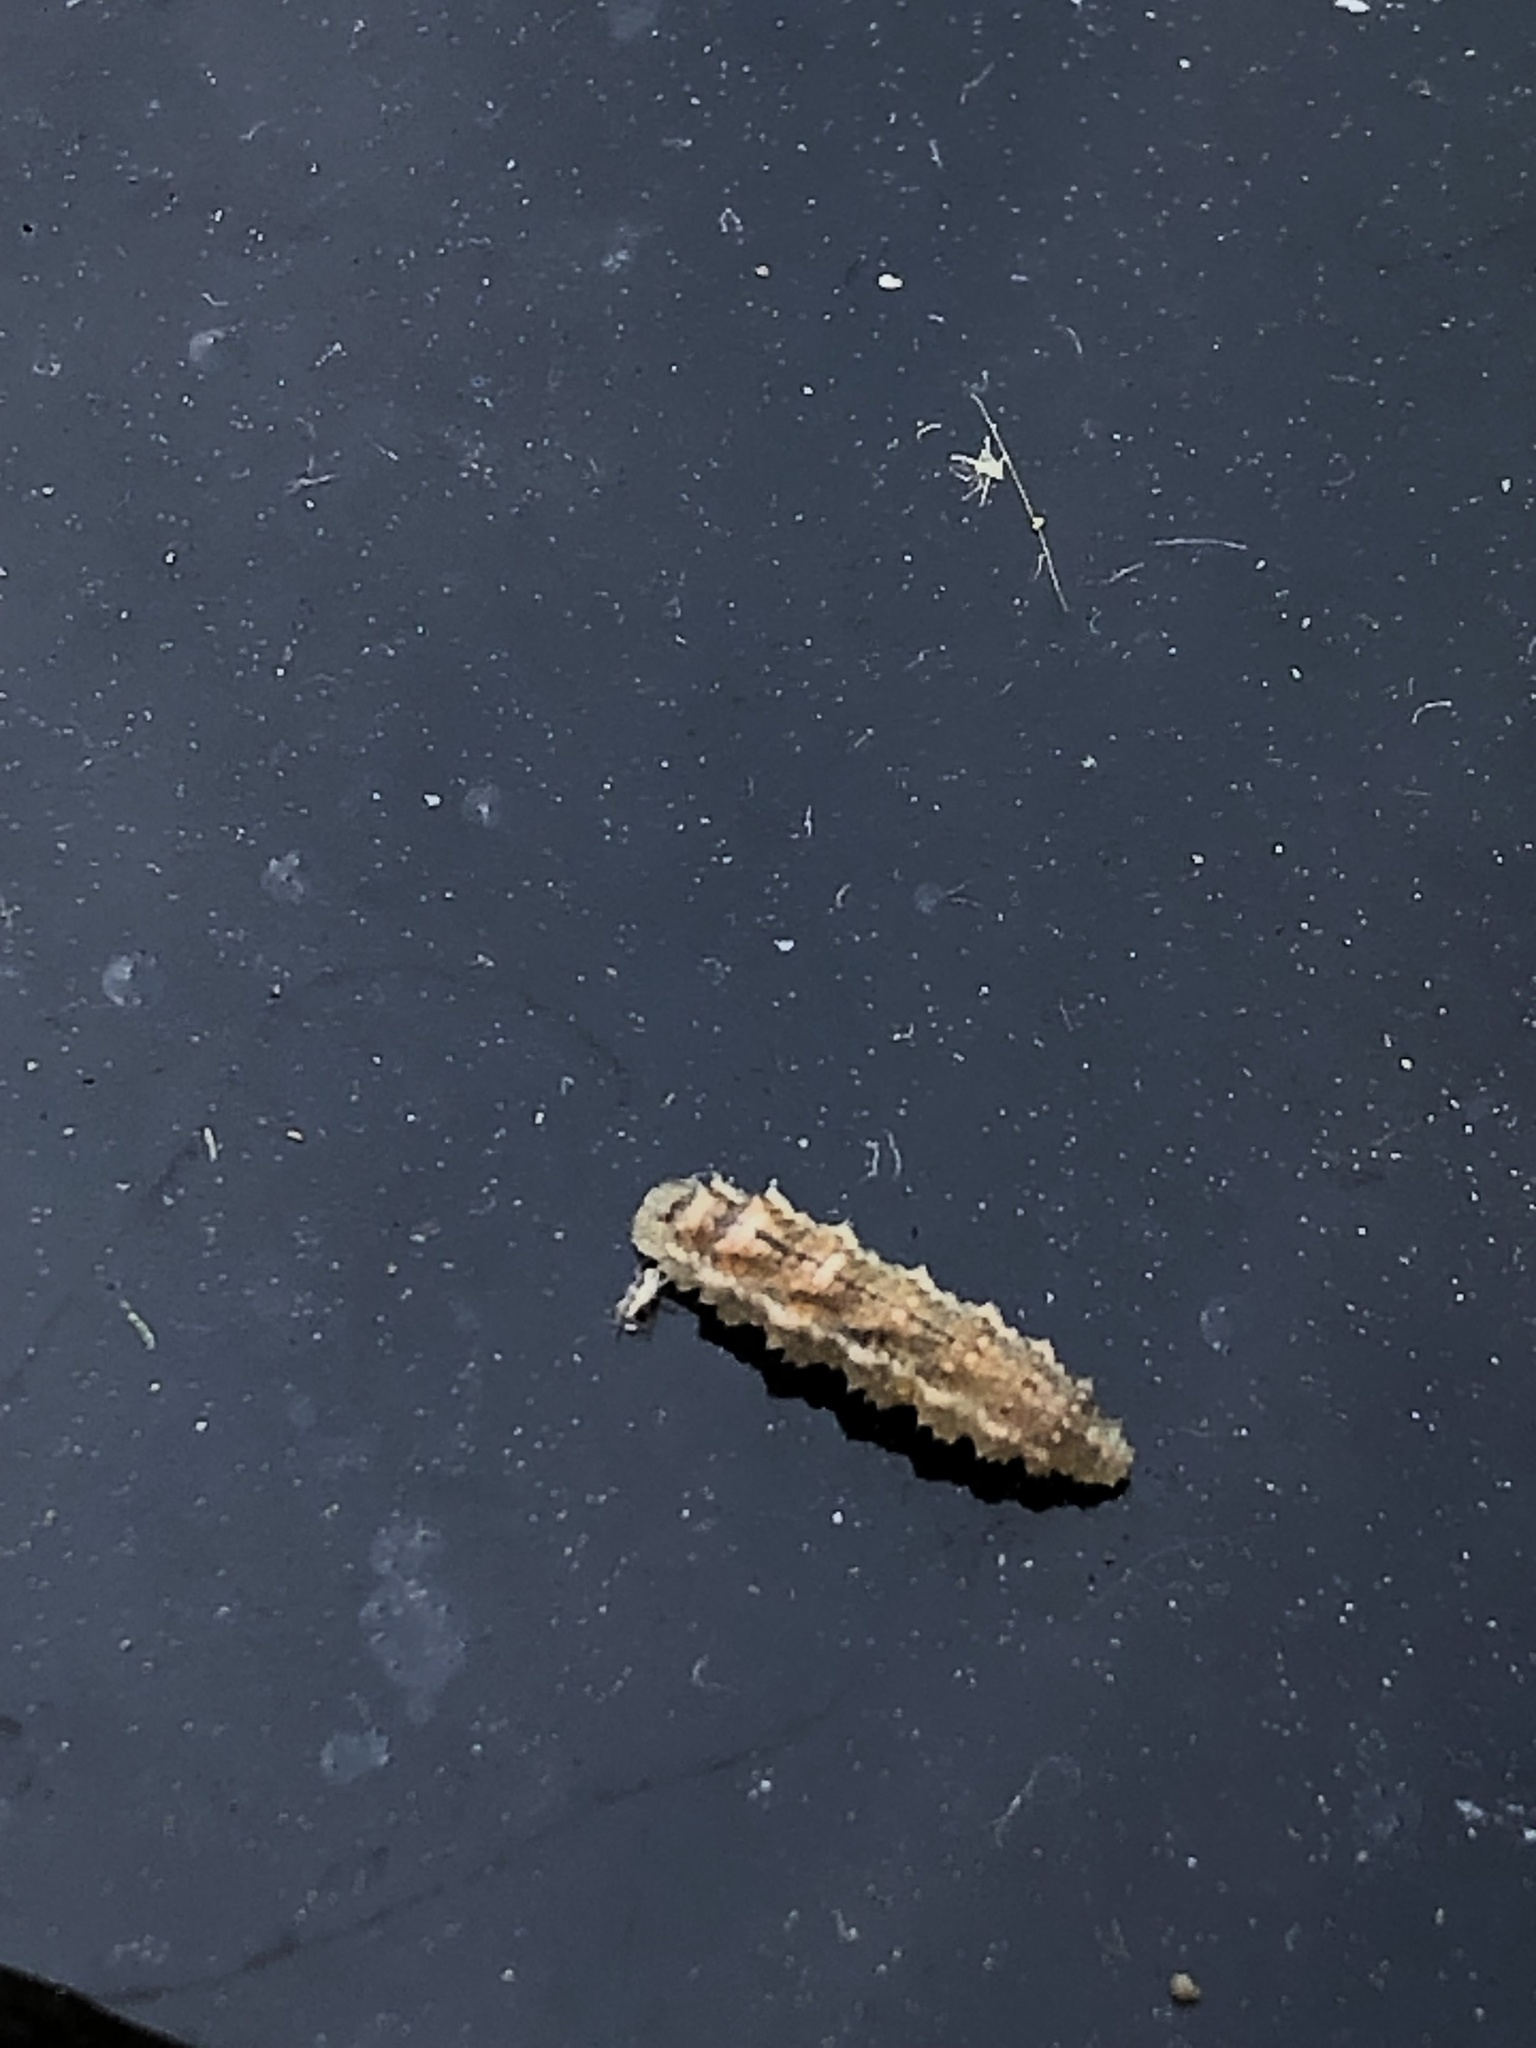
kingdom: Animalia
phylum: Arthropoda
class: Insecta
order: Diptera
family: Syrphidae
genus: Eupeodes
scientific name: Eupeodes
